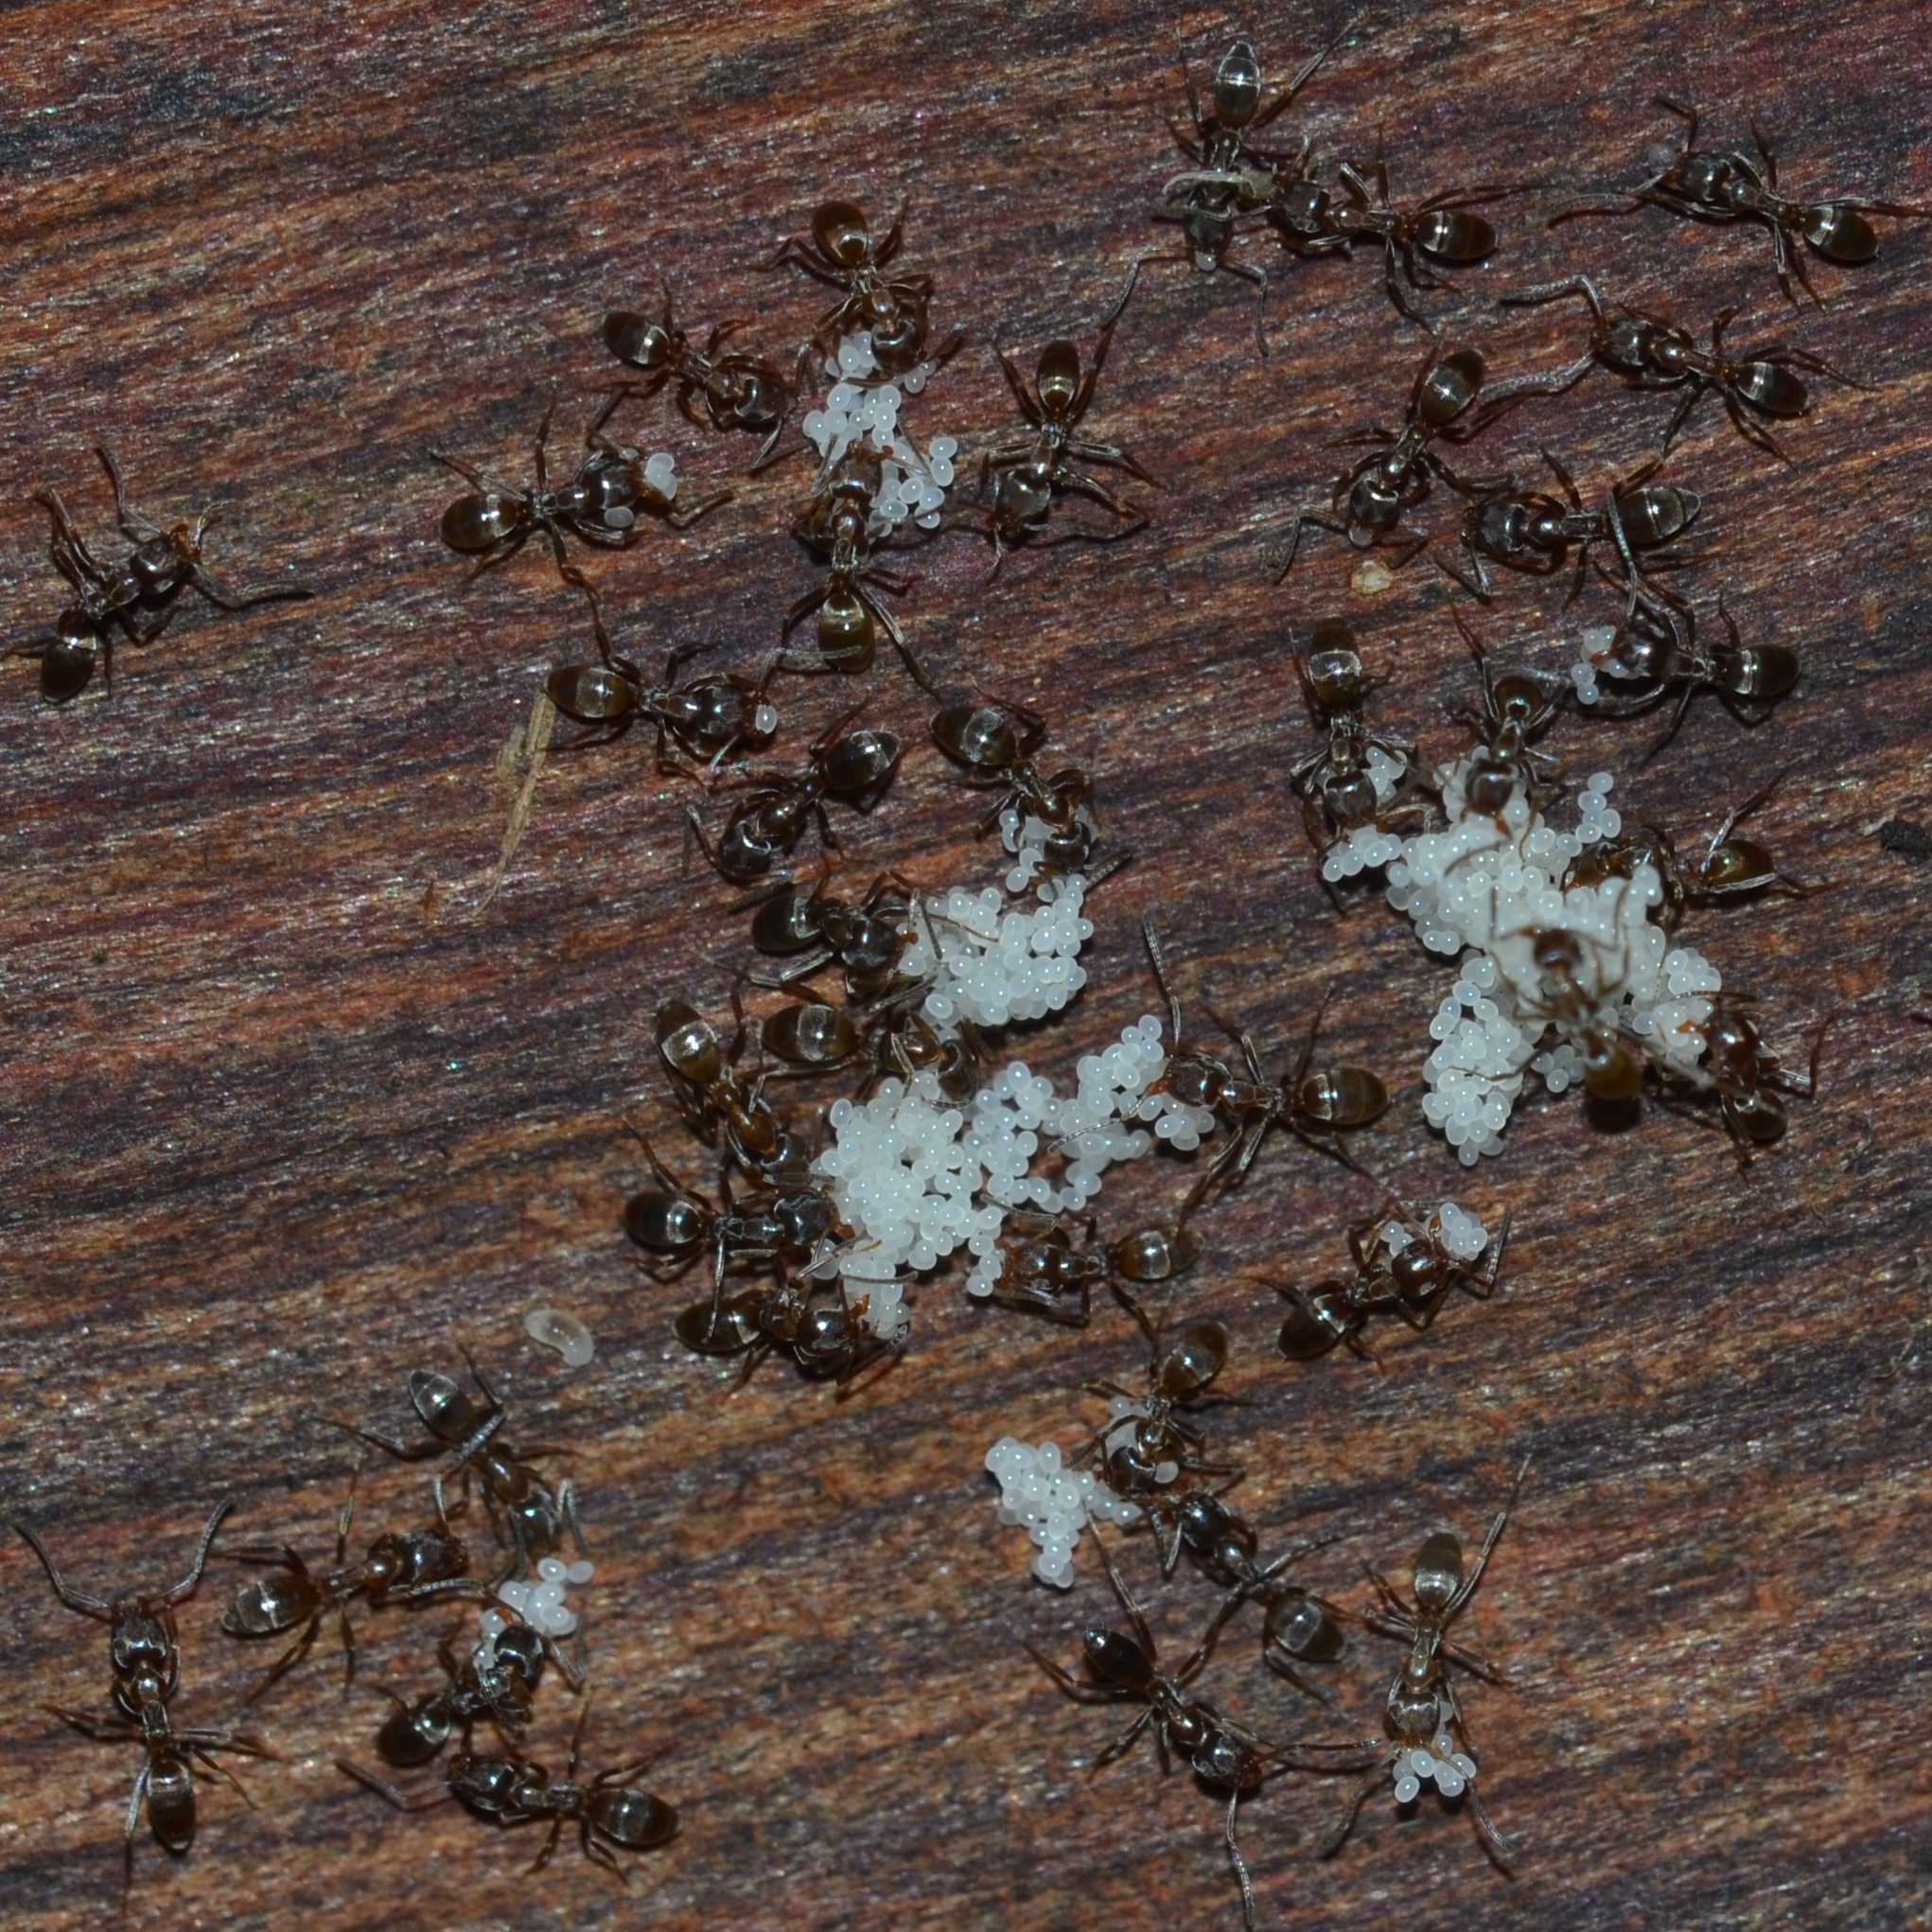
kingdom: Animalia
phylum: Arthropoda
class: Insecta
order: Hymenoptera
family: Formicidae
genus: Linepithema
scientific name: Linepithema humile
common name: Argentine ant
